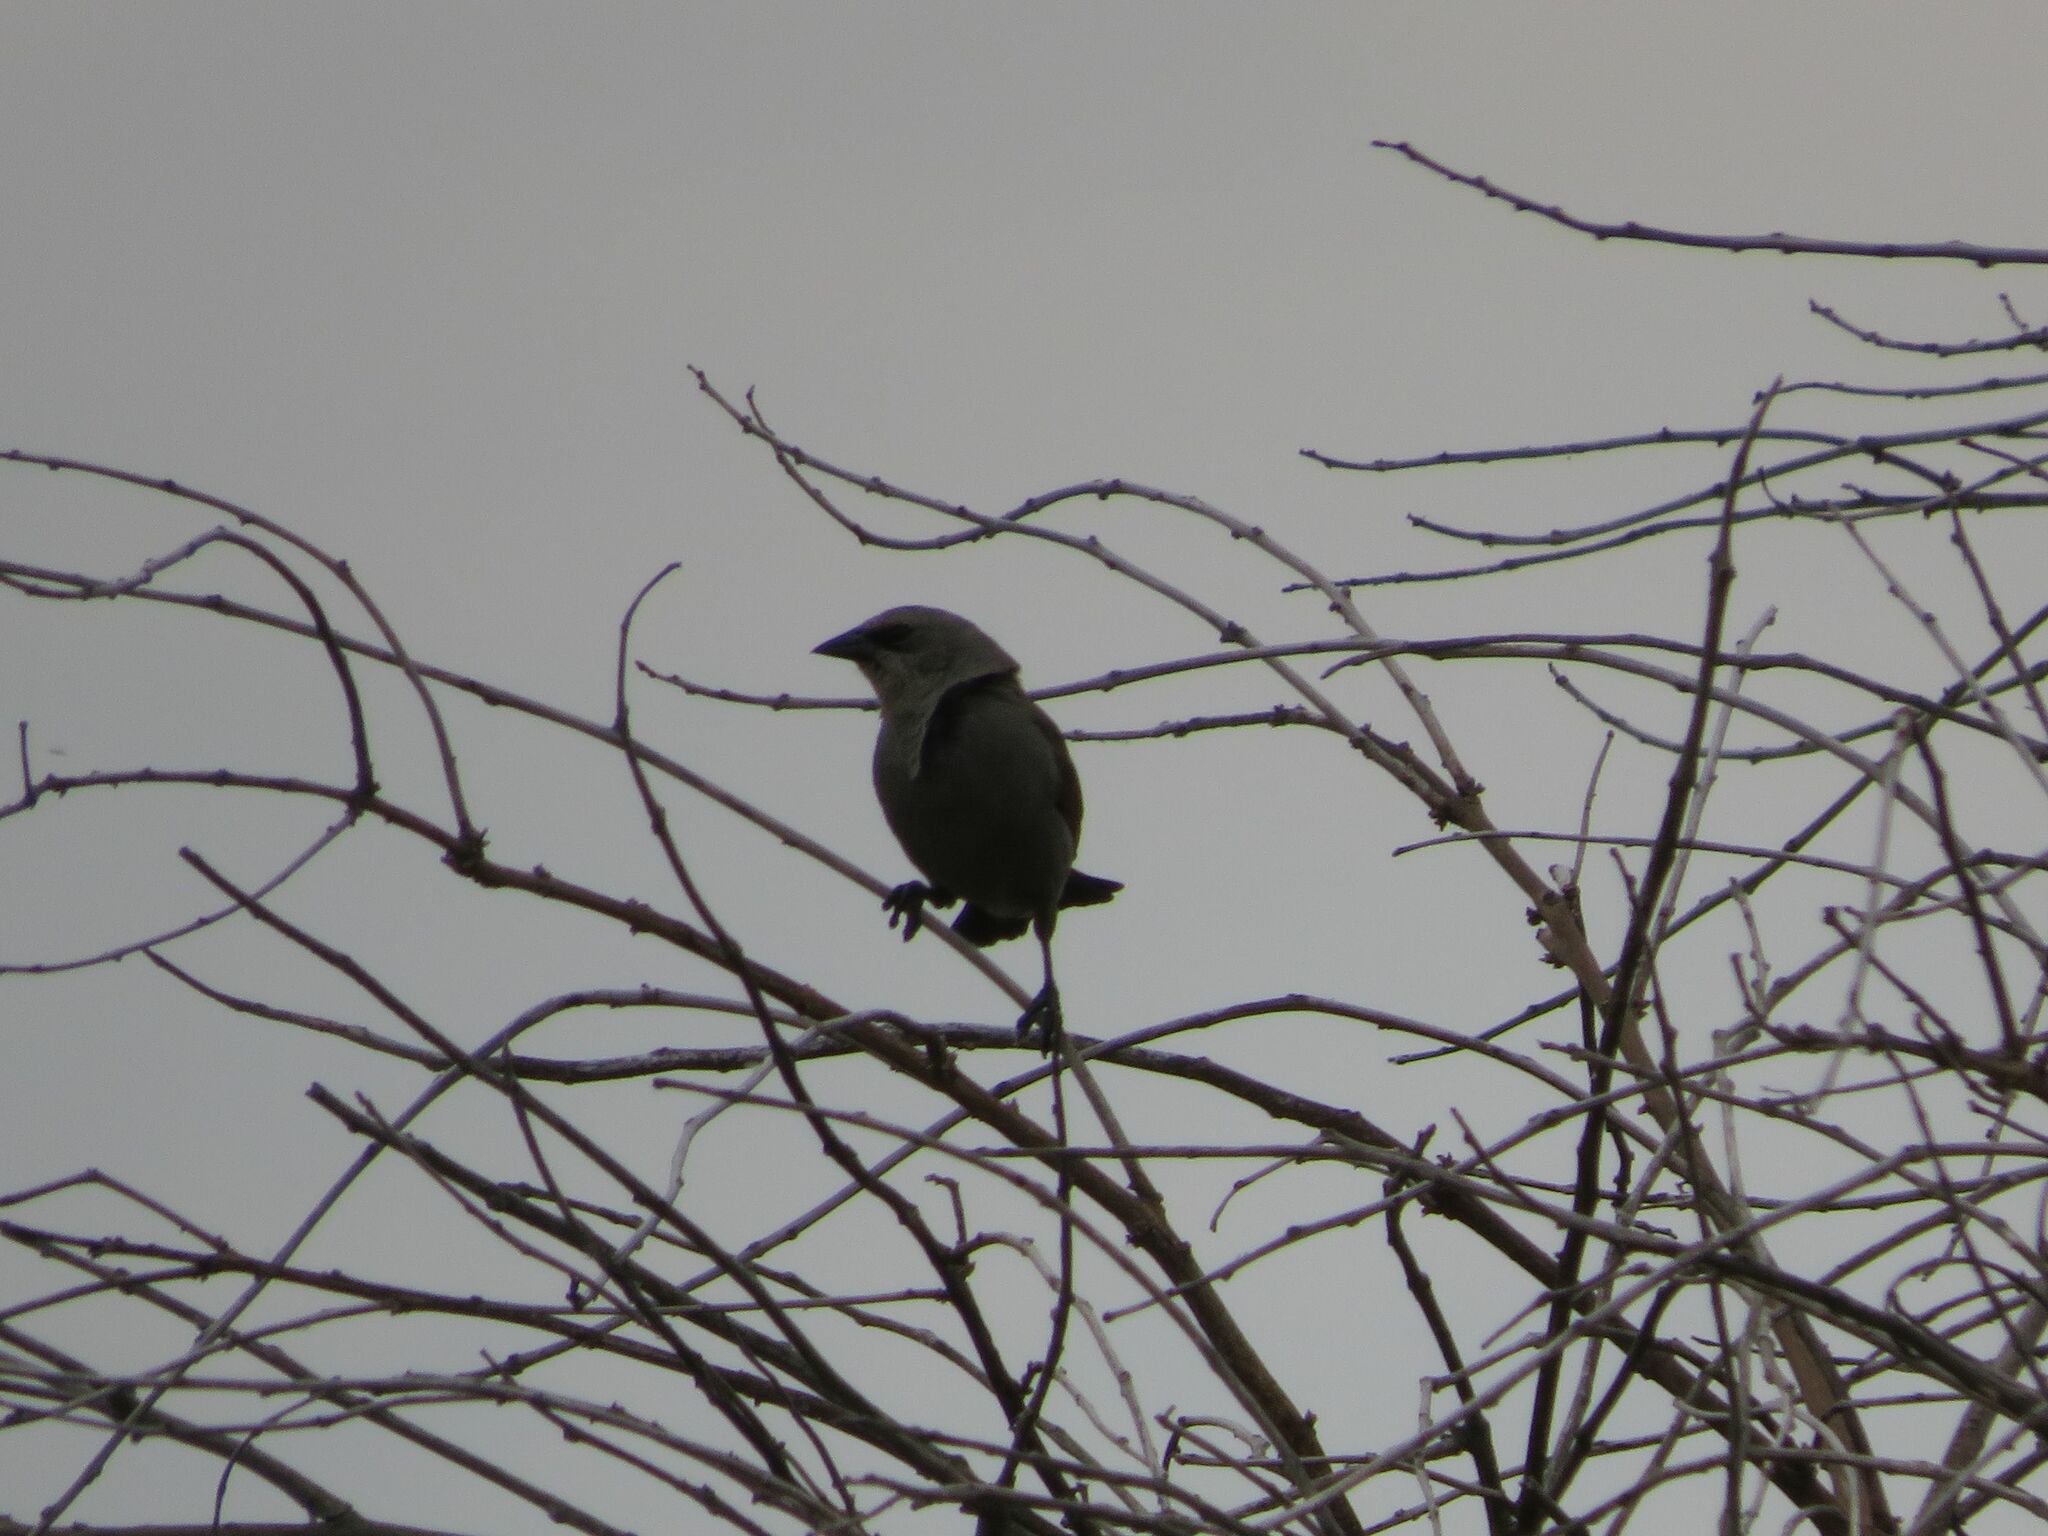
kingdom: Animalia
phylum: Chordata
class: Aves
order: Passeriformes
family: Icteridae
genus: Agelaioides
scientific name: Agelaioides badius
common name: Baywing
